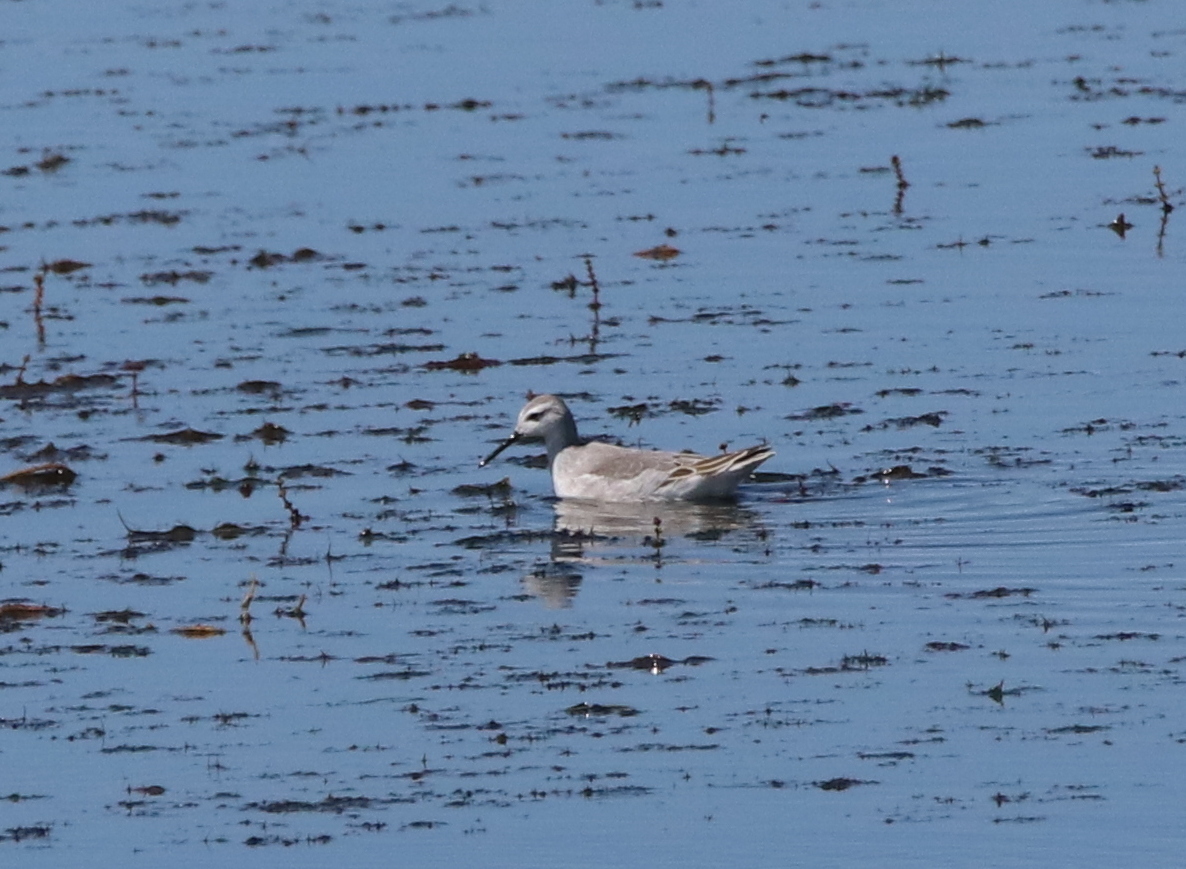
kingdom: Animalia
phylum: Chordata
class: Aves
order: Charadriiformes
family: Scolopacidae
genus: Phalaropus
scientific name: Phalaropus tricolor
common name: Wilson's phalarope
